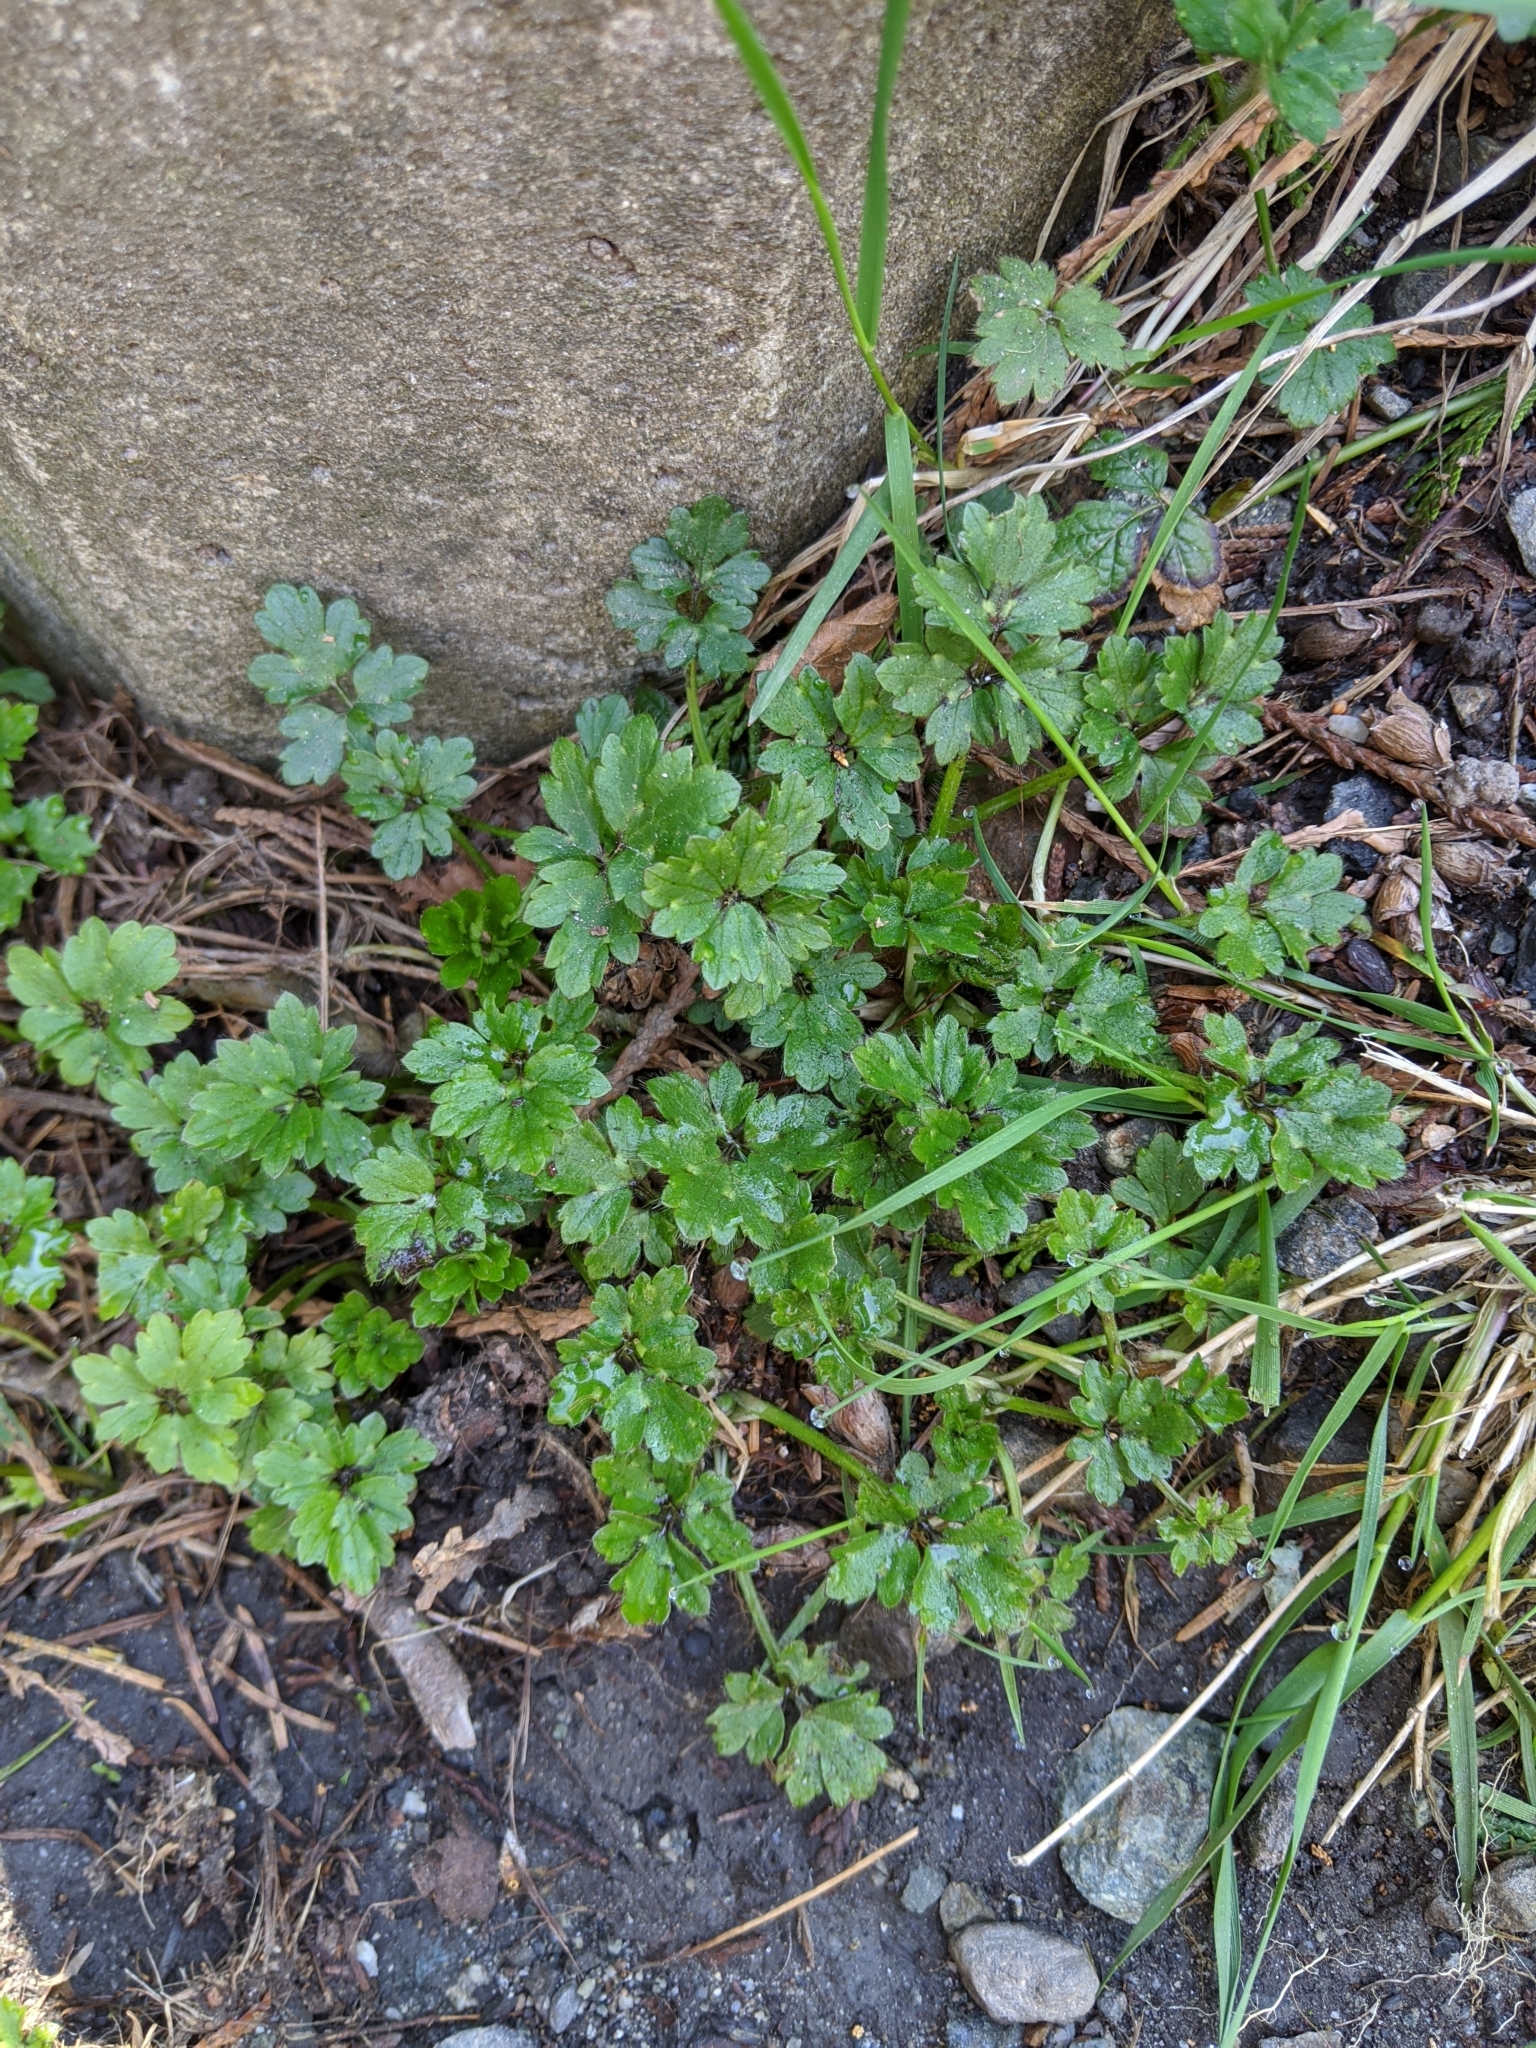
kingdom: Plantae
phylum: Tracheophyta
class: Magnoliopsida
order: Ranunculales
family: Ranunculaceae
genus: Ranunculus
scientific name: Ranunculus repens
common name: Creeping buttercup
